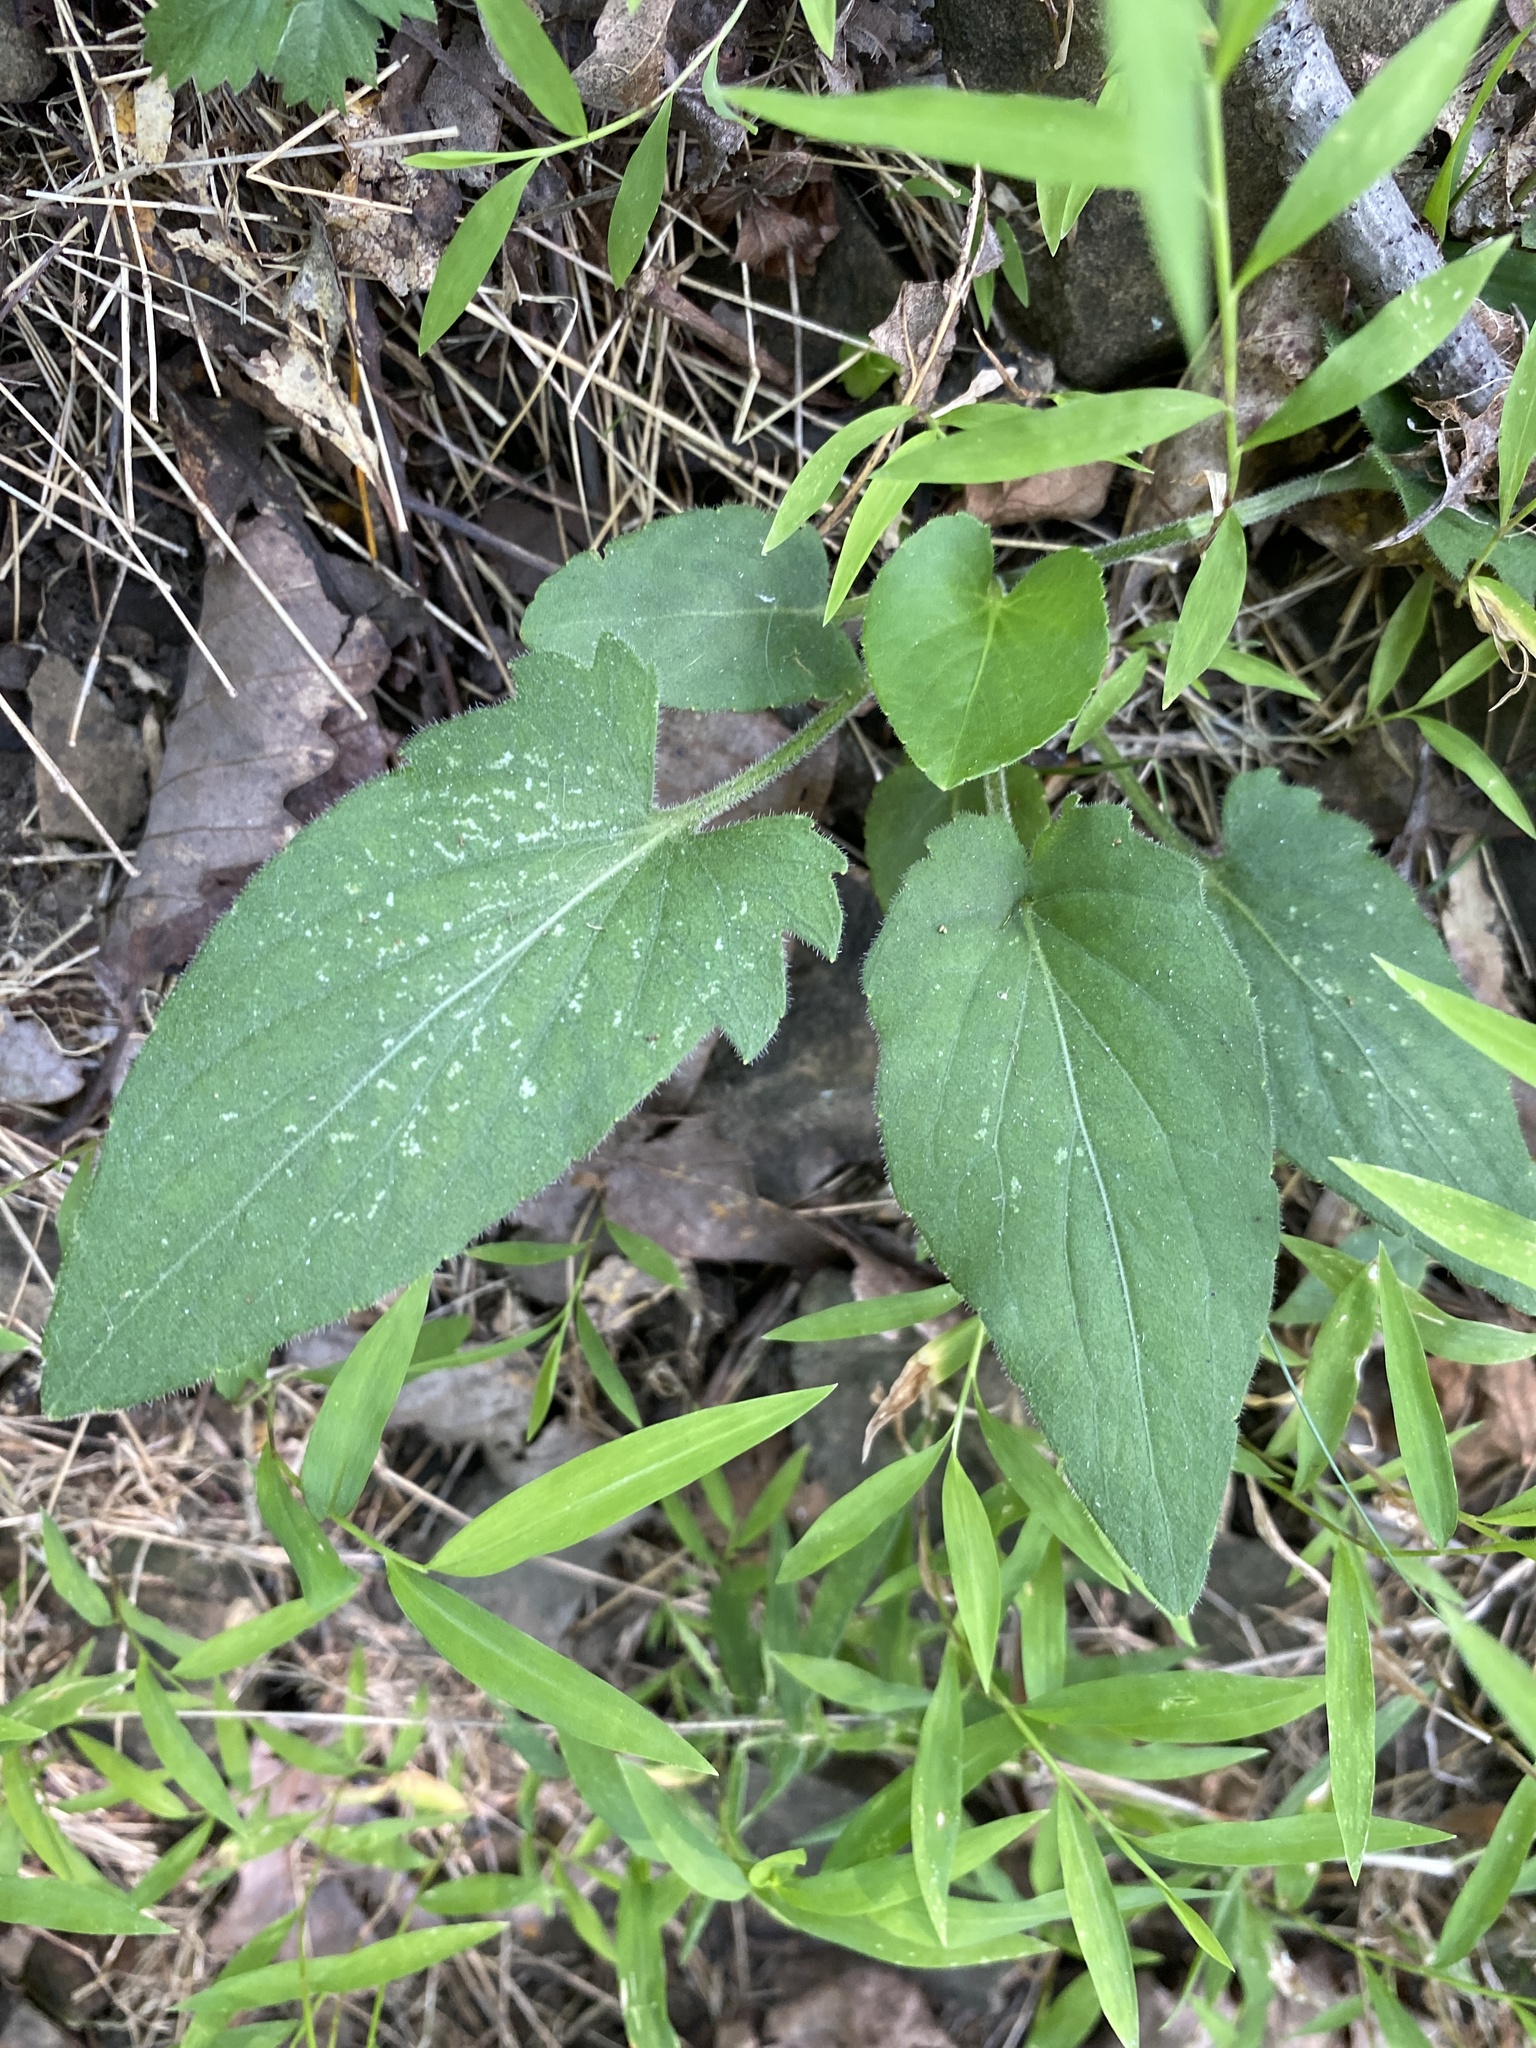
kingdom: Plantae
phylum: Tracheophyta
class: Magnoliopsida
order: Malpighiales
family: Violaceae
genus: Viola
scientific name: Viola sagittata
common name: Arrowhead violet
